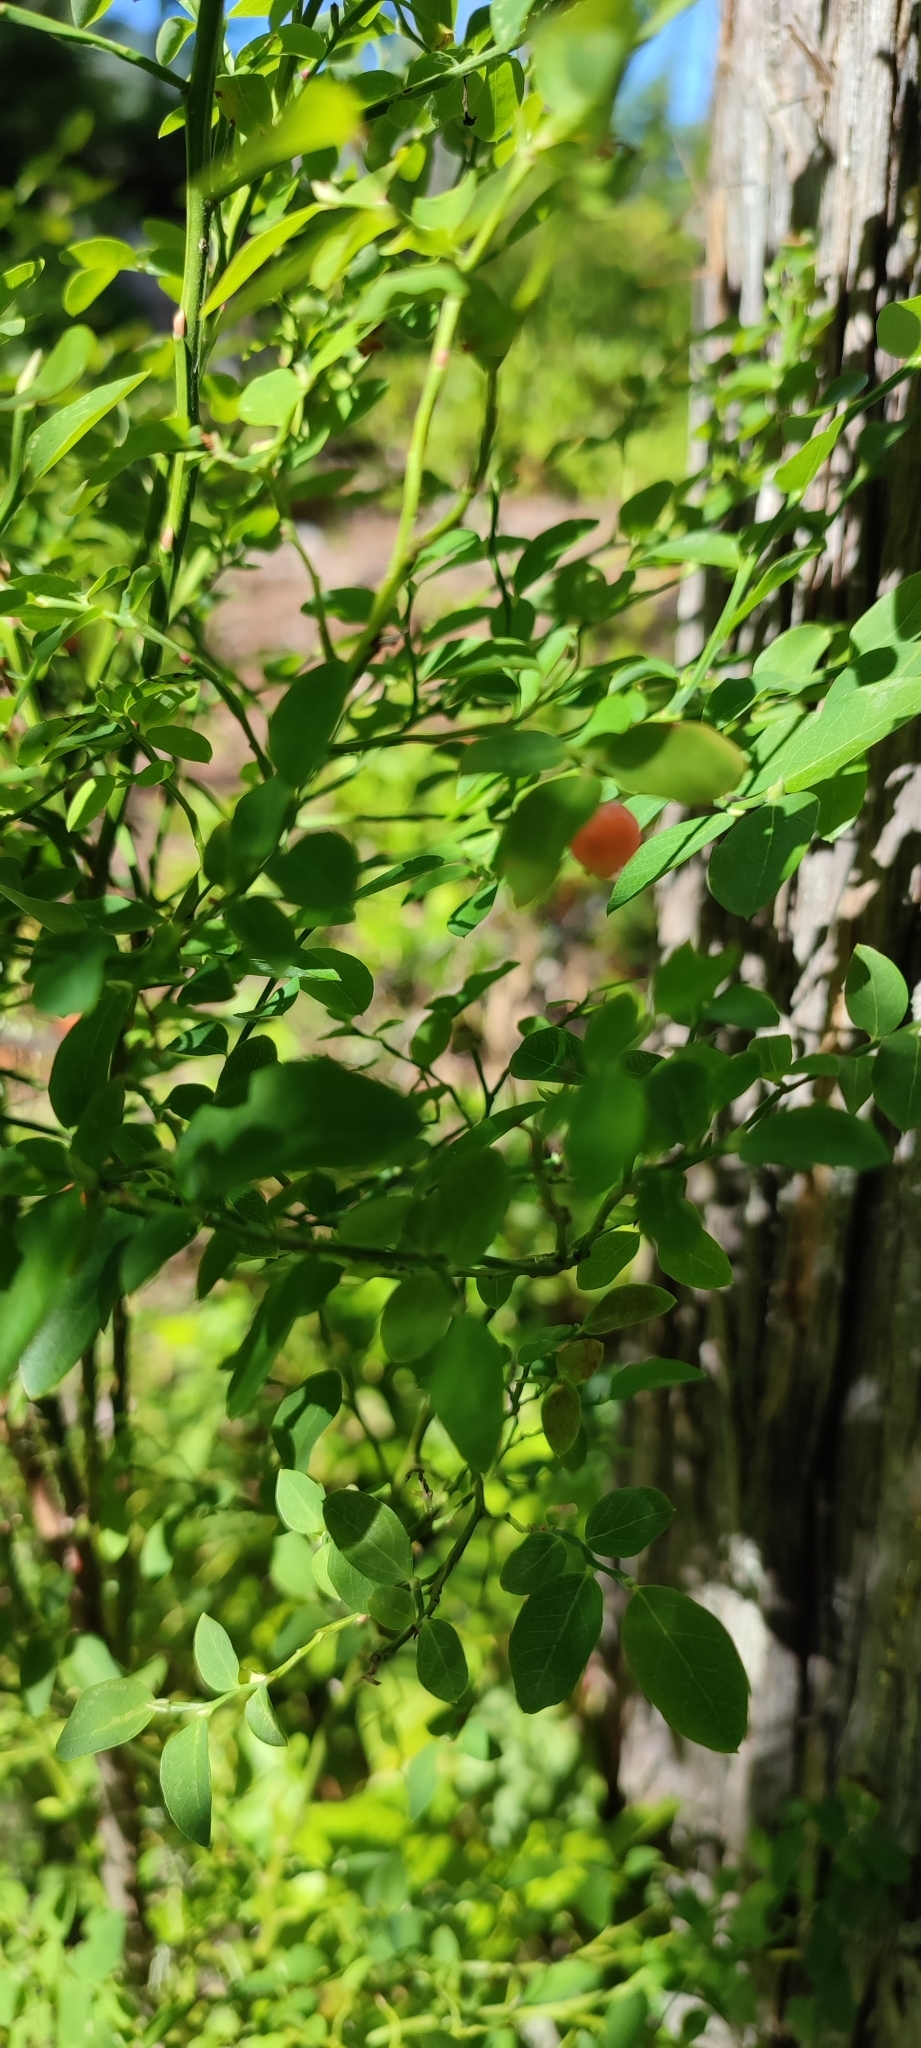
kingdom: Plantae
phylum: Tracheophyta
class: Magnoliopsida
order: Ericales
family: Ericaceae
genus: Vaccinium
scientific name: Vaccinium parvifolium
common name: Red-huckleberry
